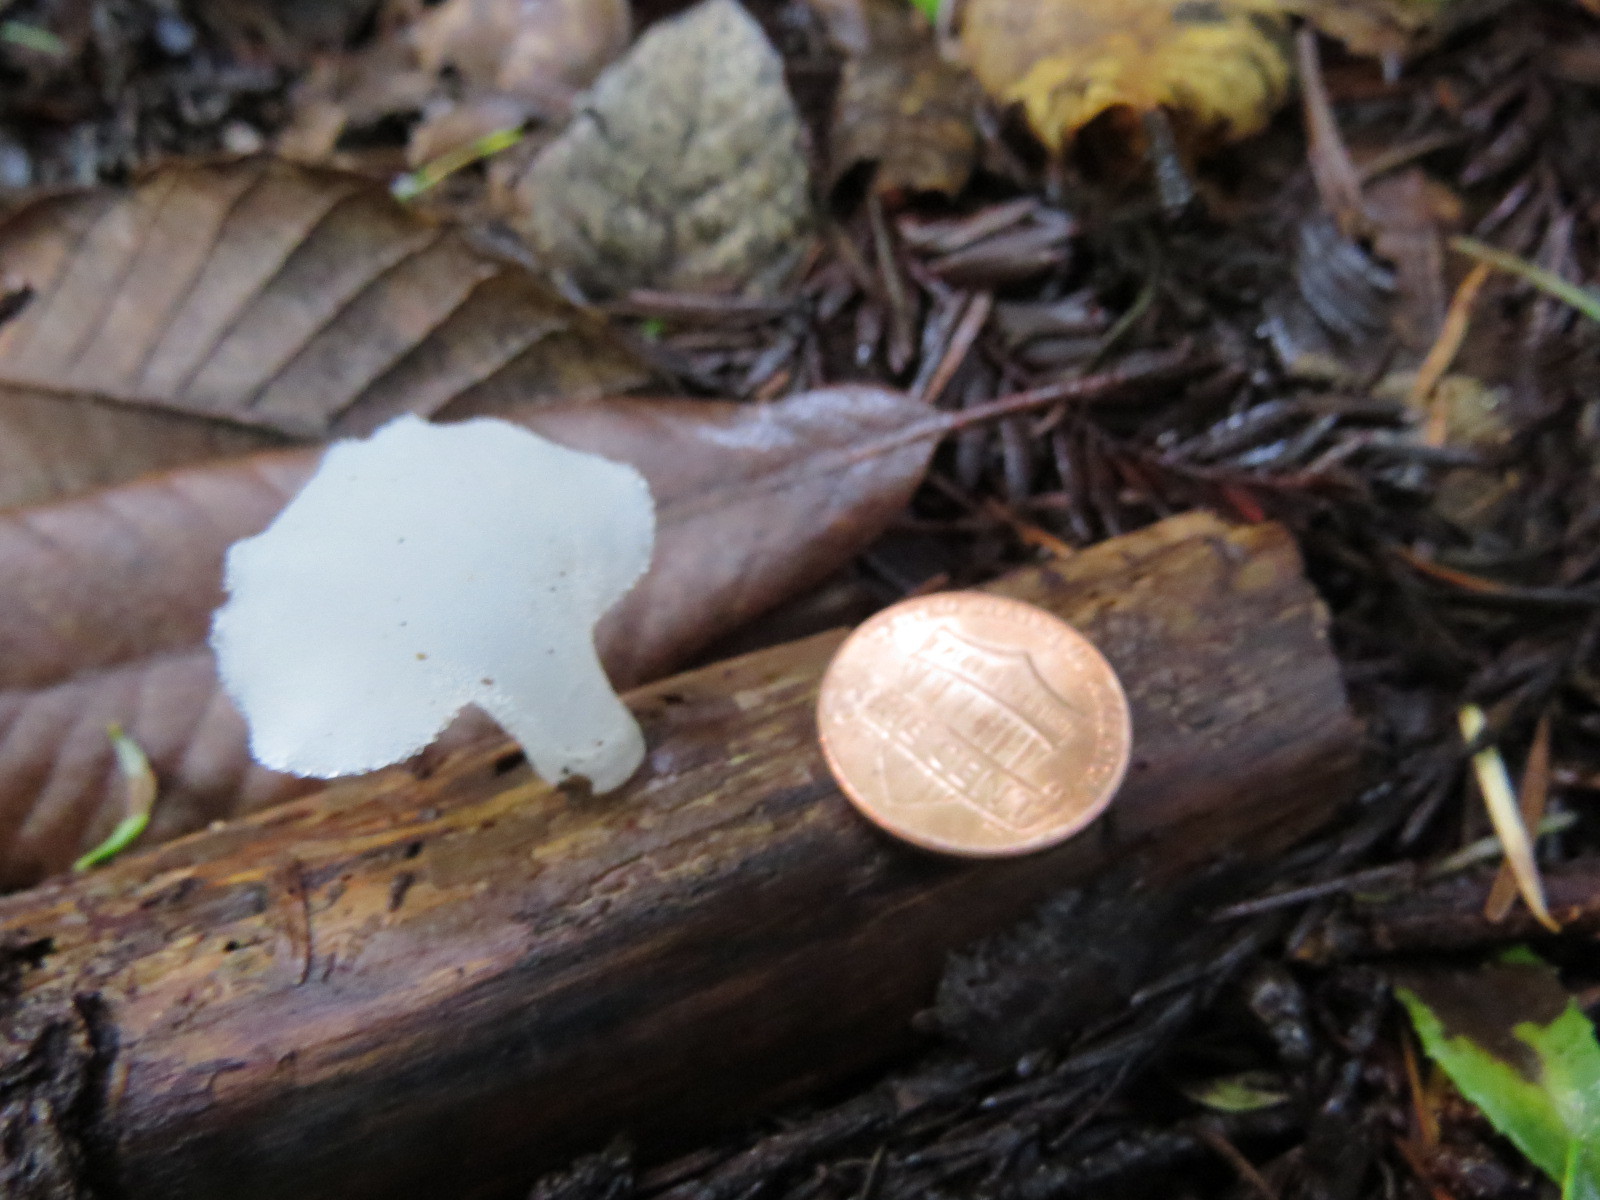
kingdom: Fungi
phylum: Basidiomycota
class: Agaricomycetes
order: Auriculariales
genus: Pseudohydnum
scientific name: Pseudohydnum gelatinosum
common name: Jelly tongue
